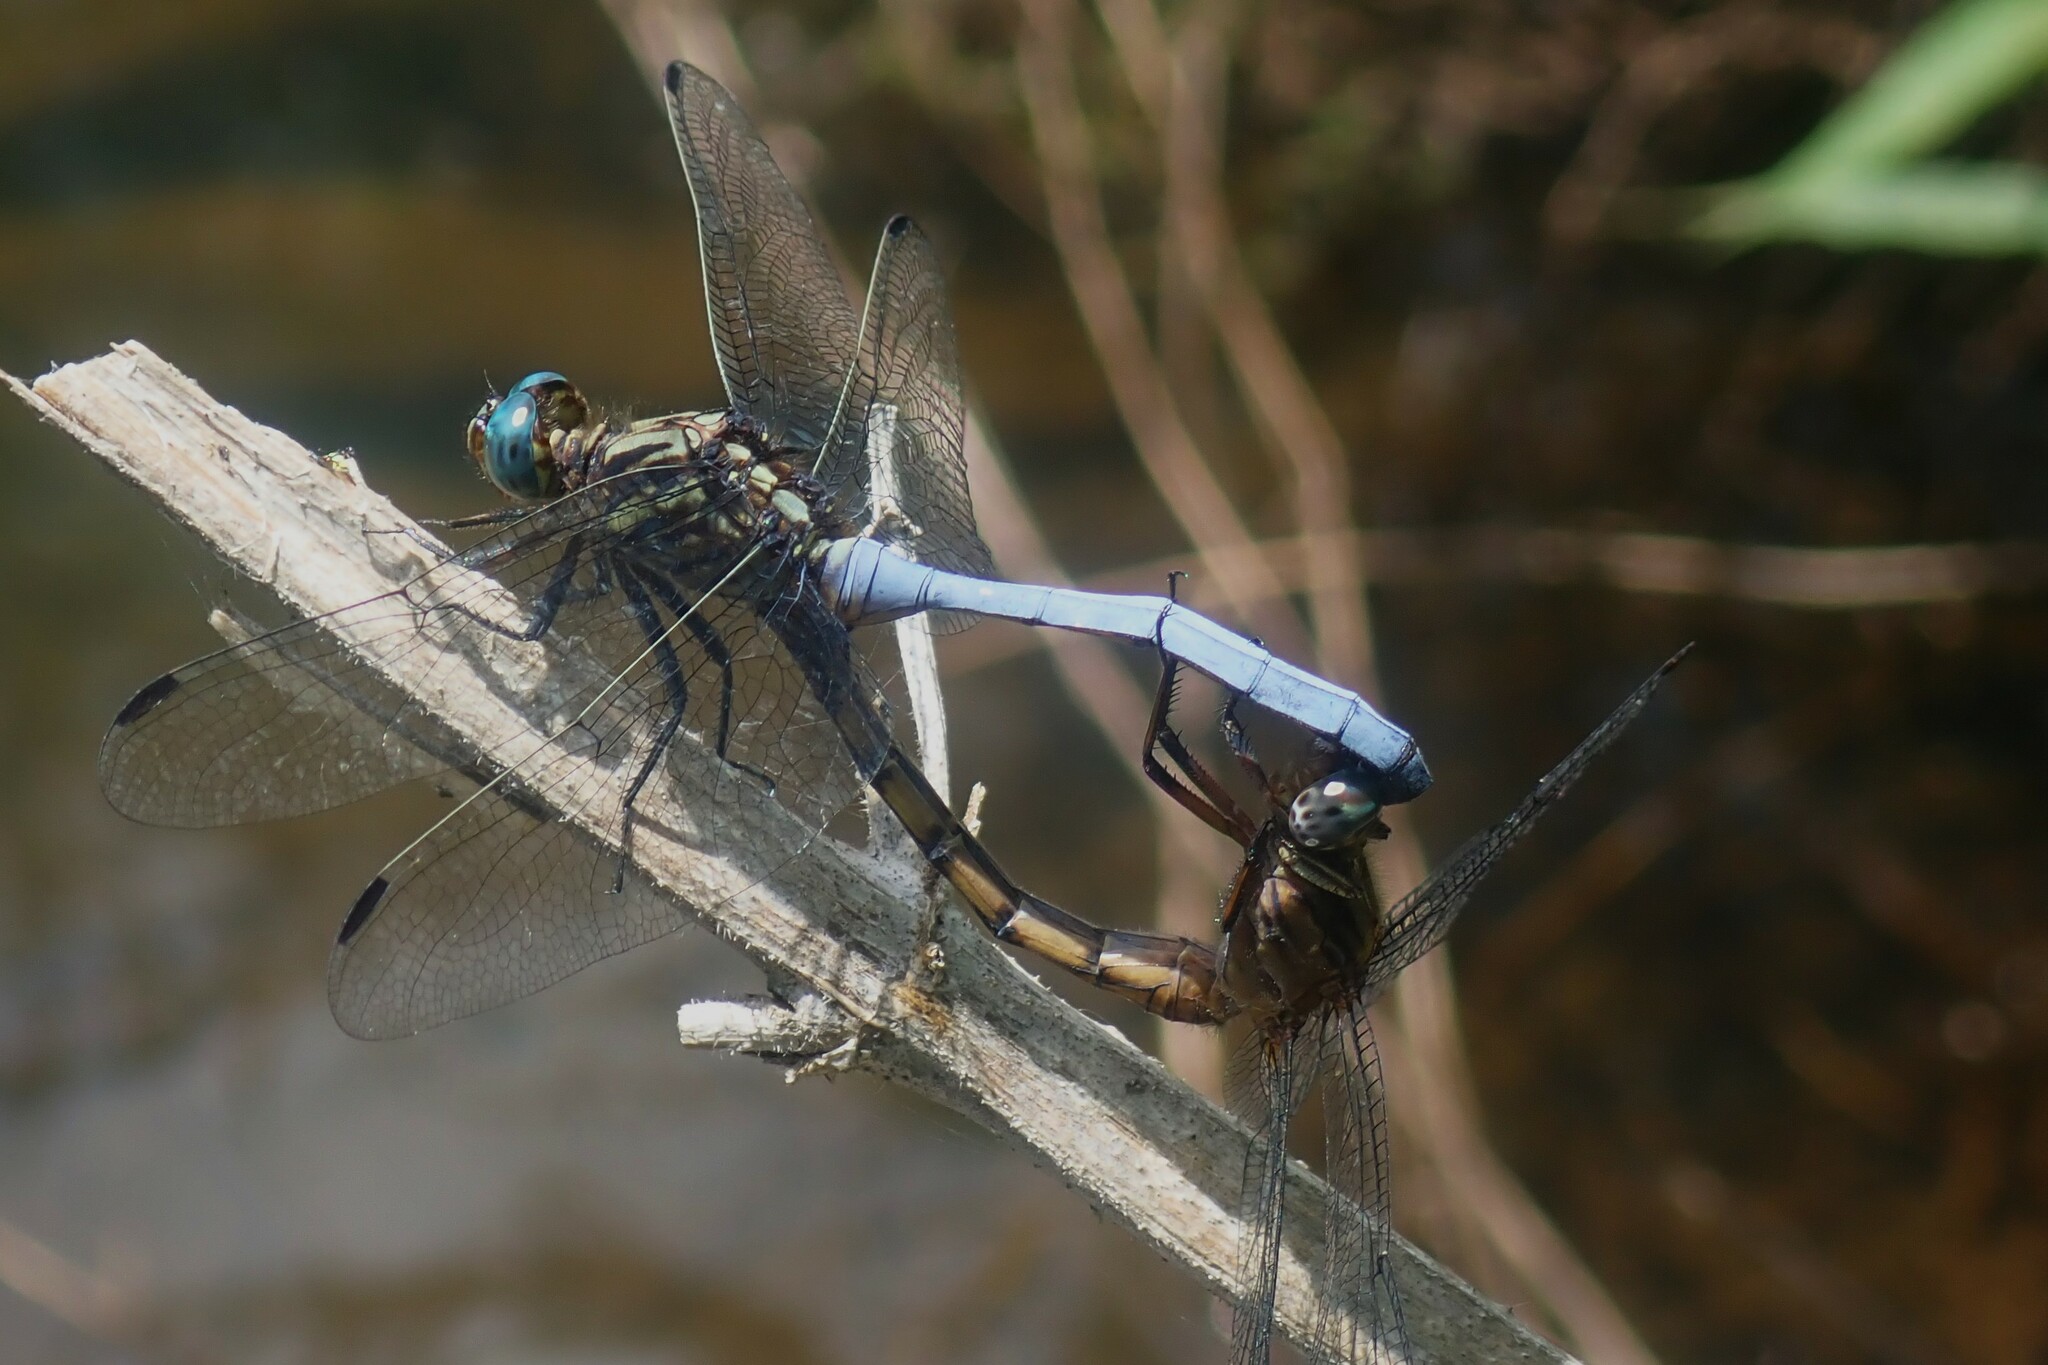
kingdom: Animalia
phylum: Arthropoda
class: Insecta
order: Odonata
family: Libellulidae
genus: Orthetrum
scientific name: Orthetrum julia
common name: Julia skimmer
